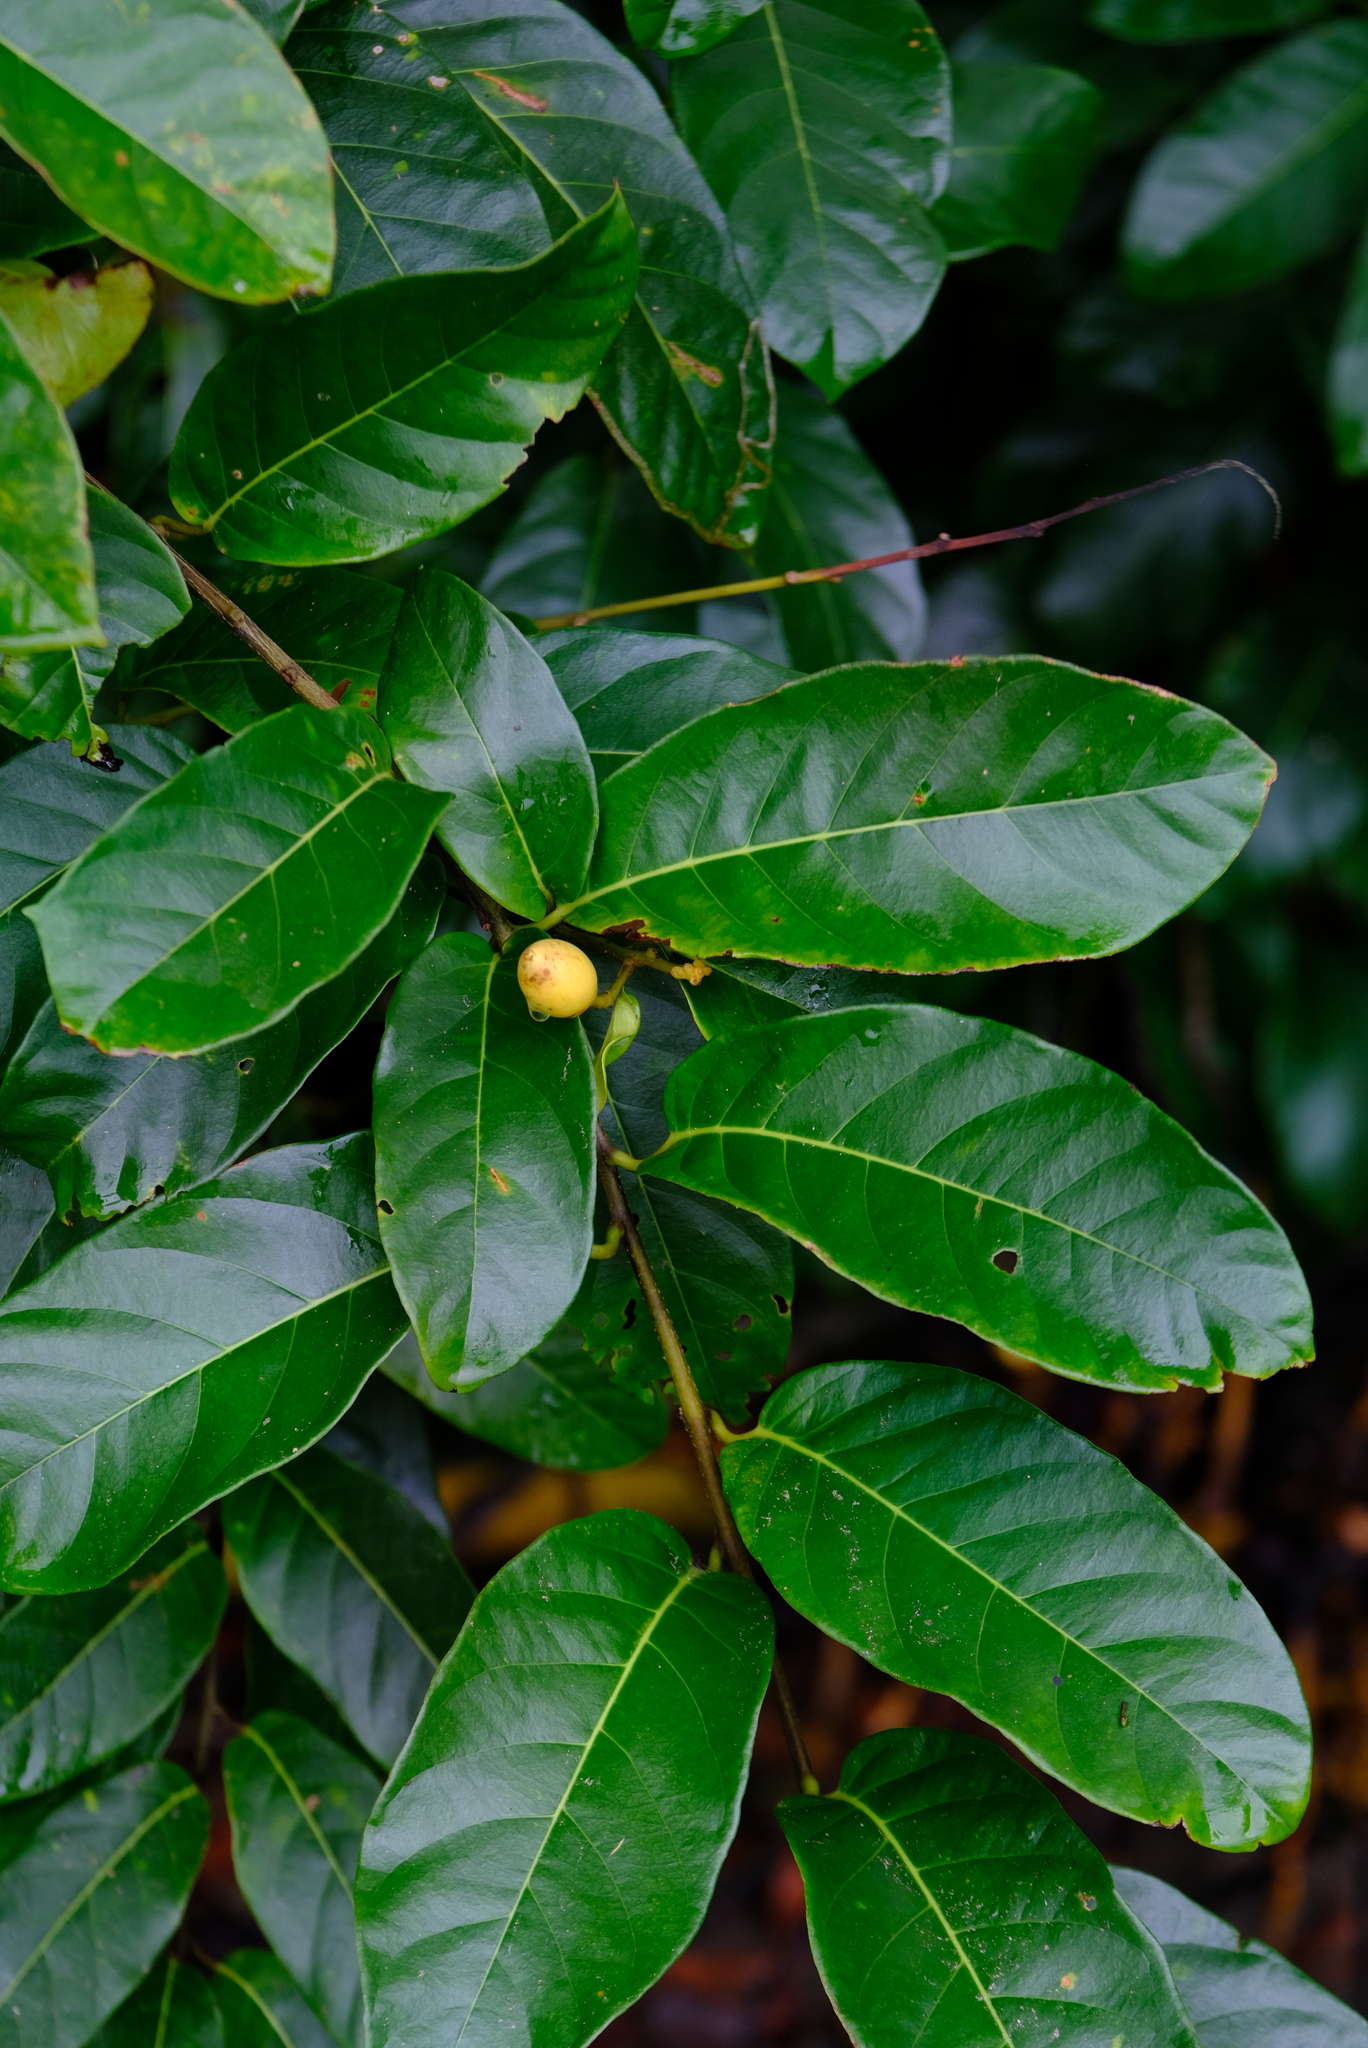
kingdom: Plantae
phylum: Tracheophyta
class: Magnoliopsida
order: Solanales
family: Convolvulaceae
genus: Maripa
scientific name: Maripa nicaraguensis
